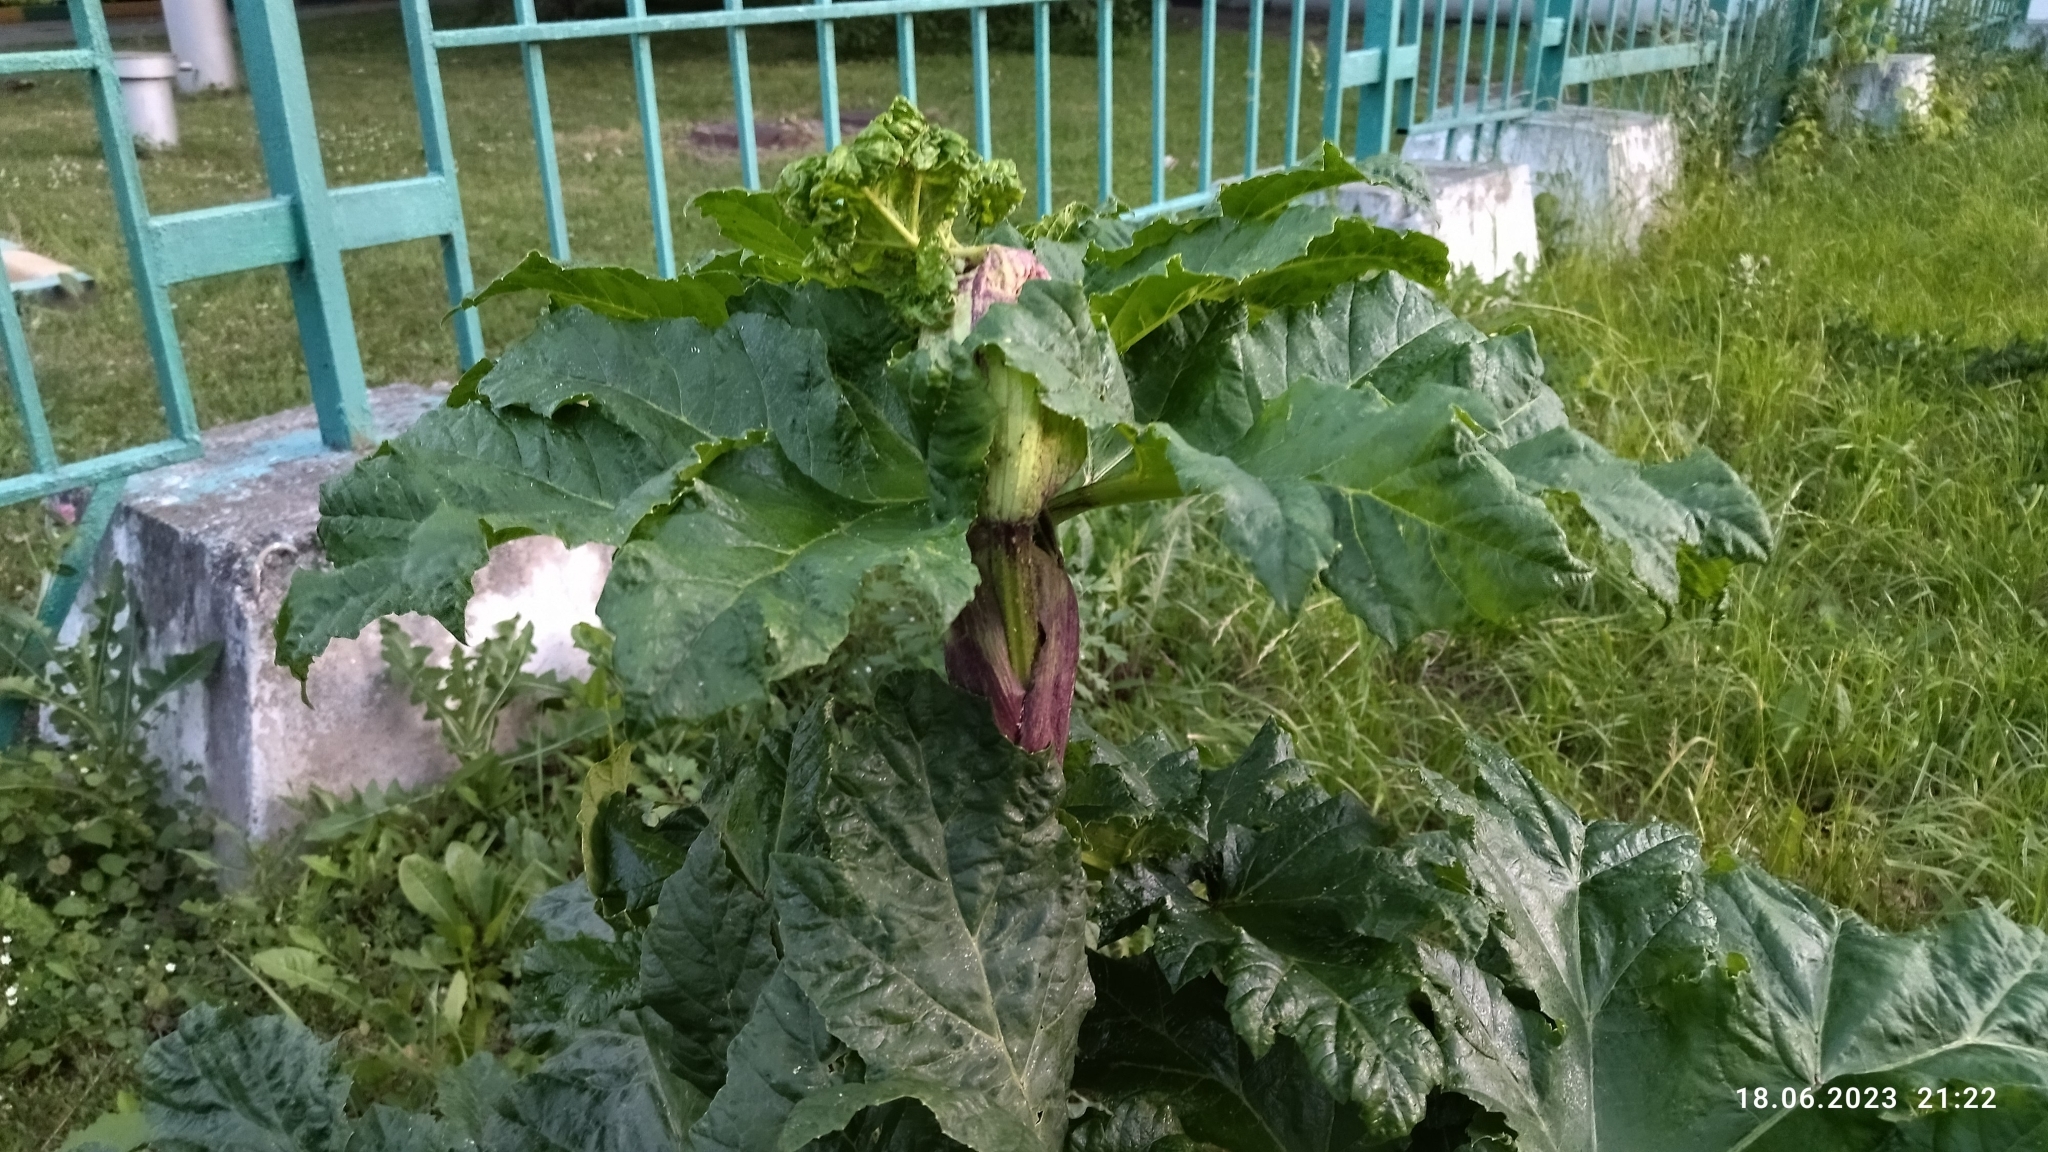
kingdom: Plantae
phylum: Tracheophyta
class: Magnoliopsida
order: Apiales
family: Apiaceae
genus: Heracleum
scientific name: Heracleum sosnowskyi
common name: Sosnowsky's hogweed
